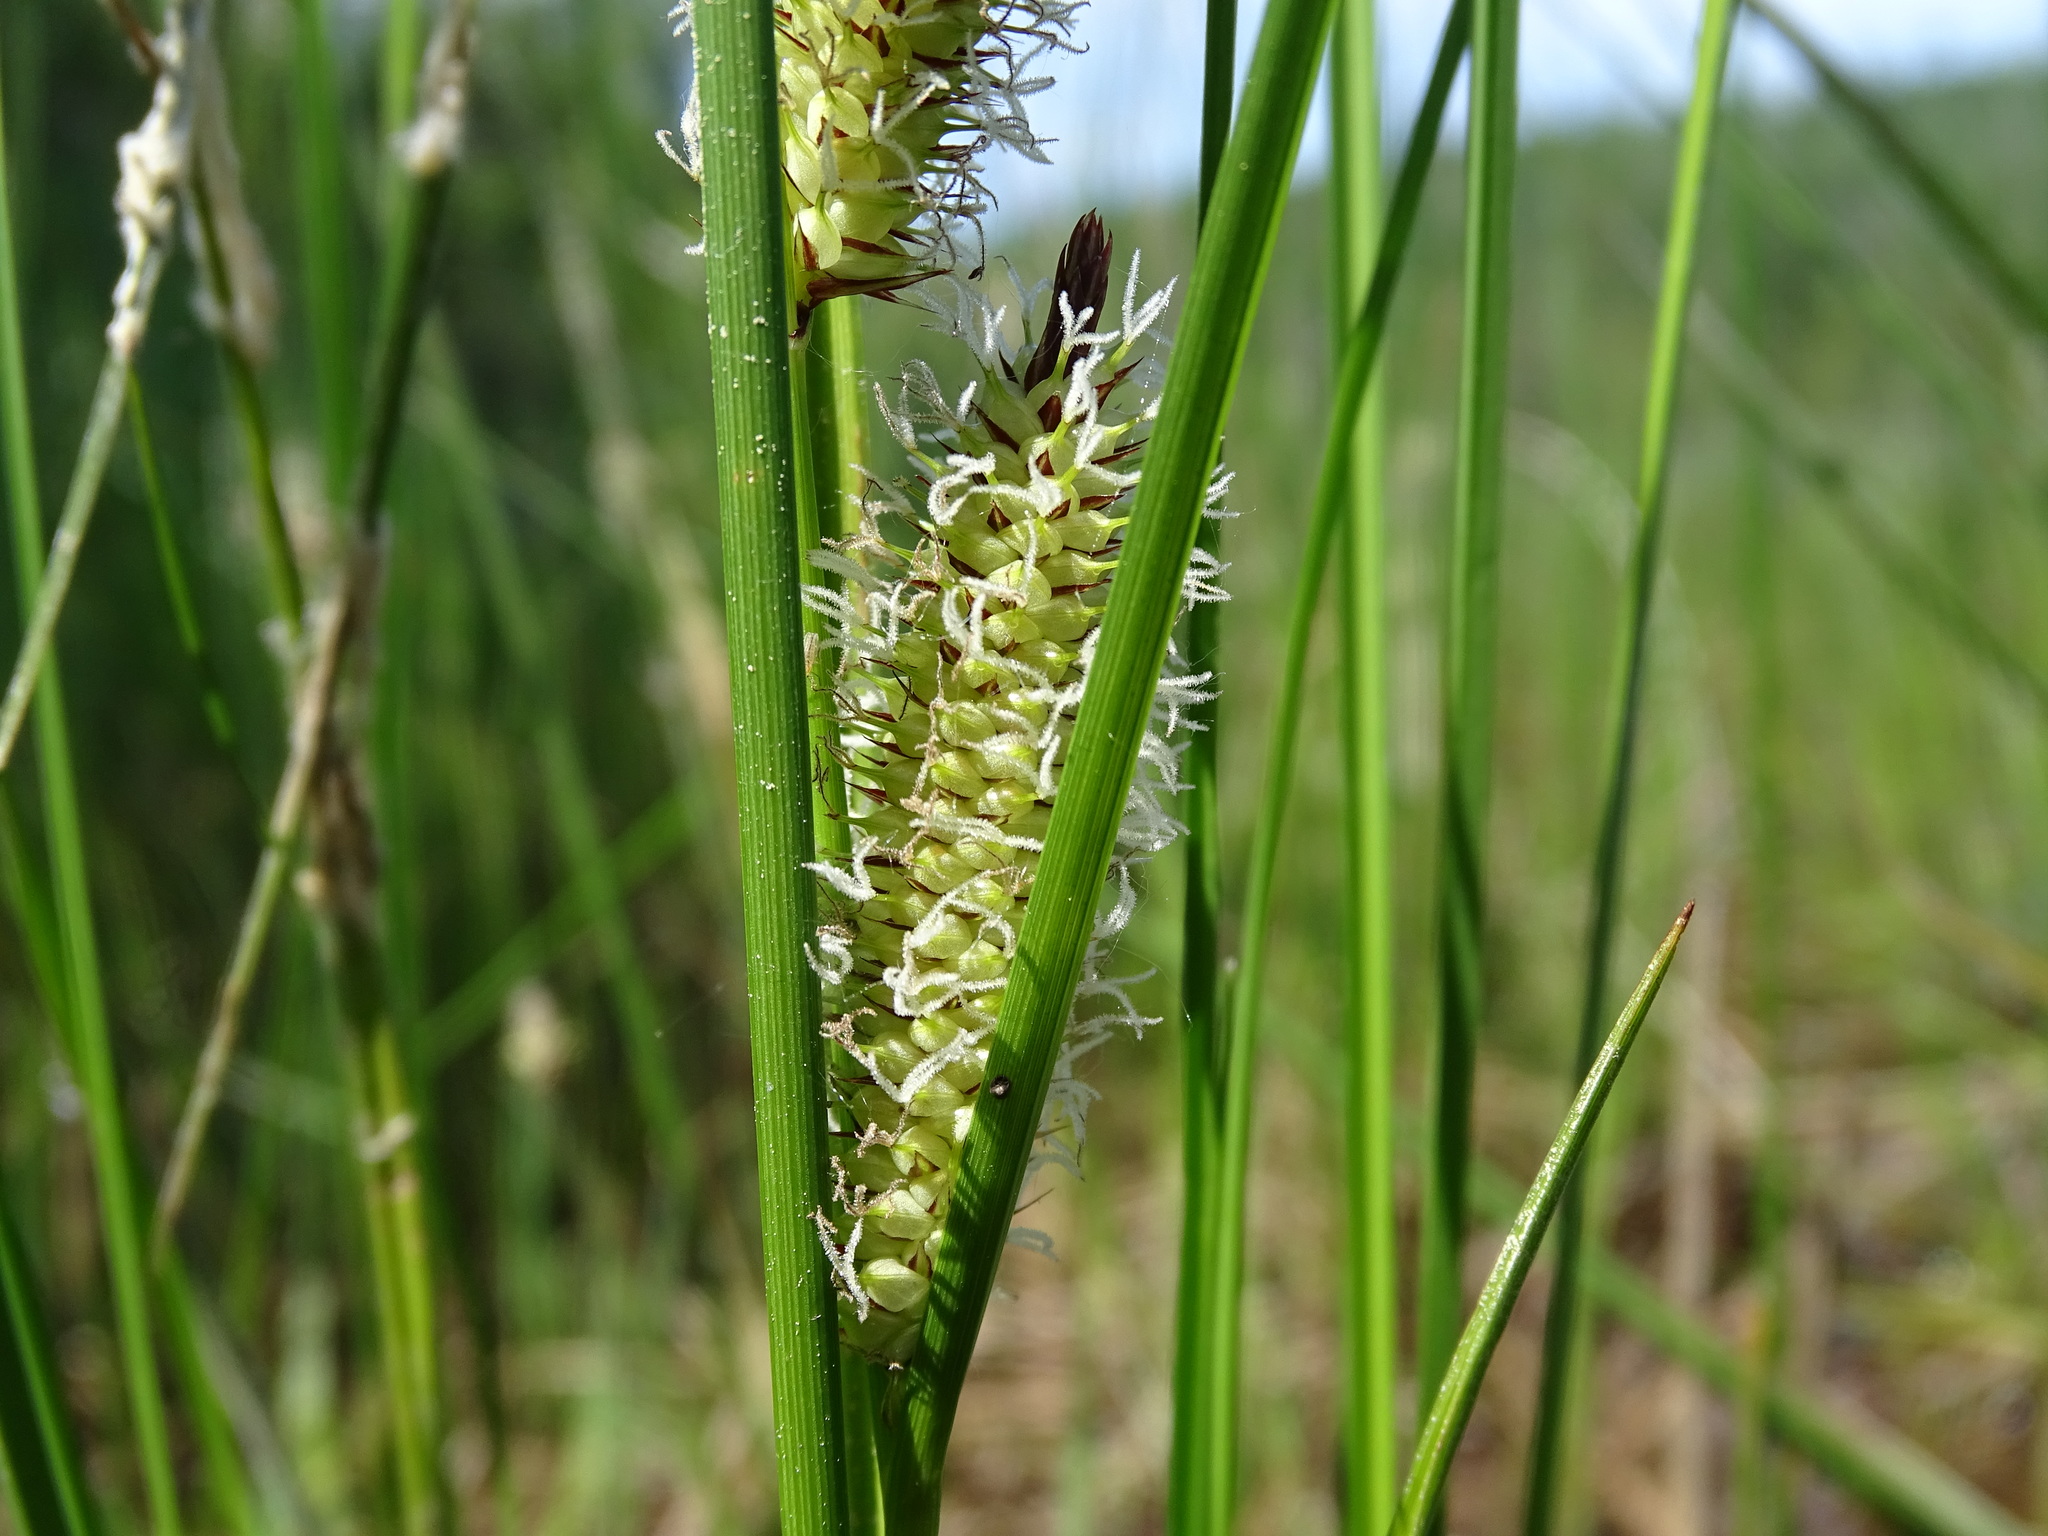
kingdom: Plantae
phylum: Tracheophyta
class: Liliopsida
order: Poales
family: Cyperaceae
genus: Carex
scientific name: Carex rostrata
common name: Bottle sedge
